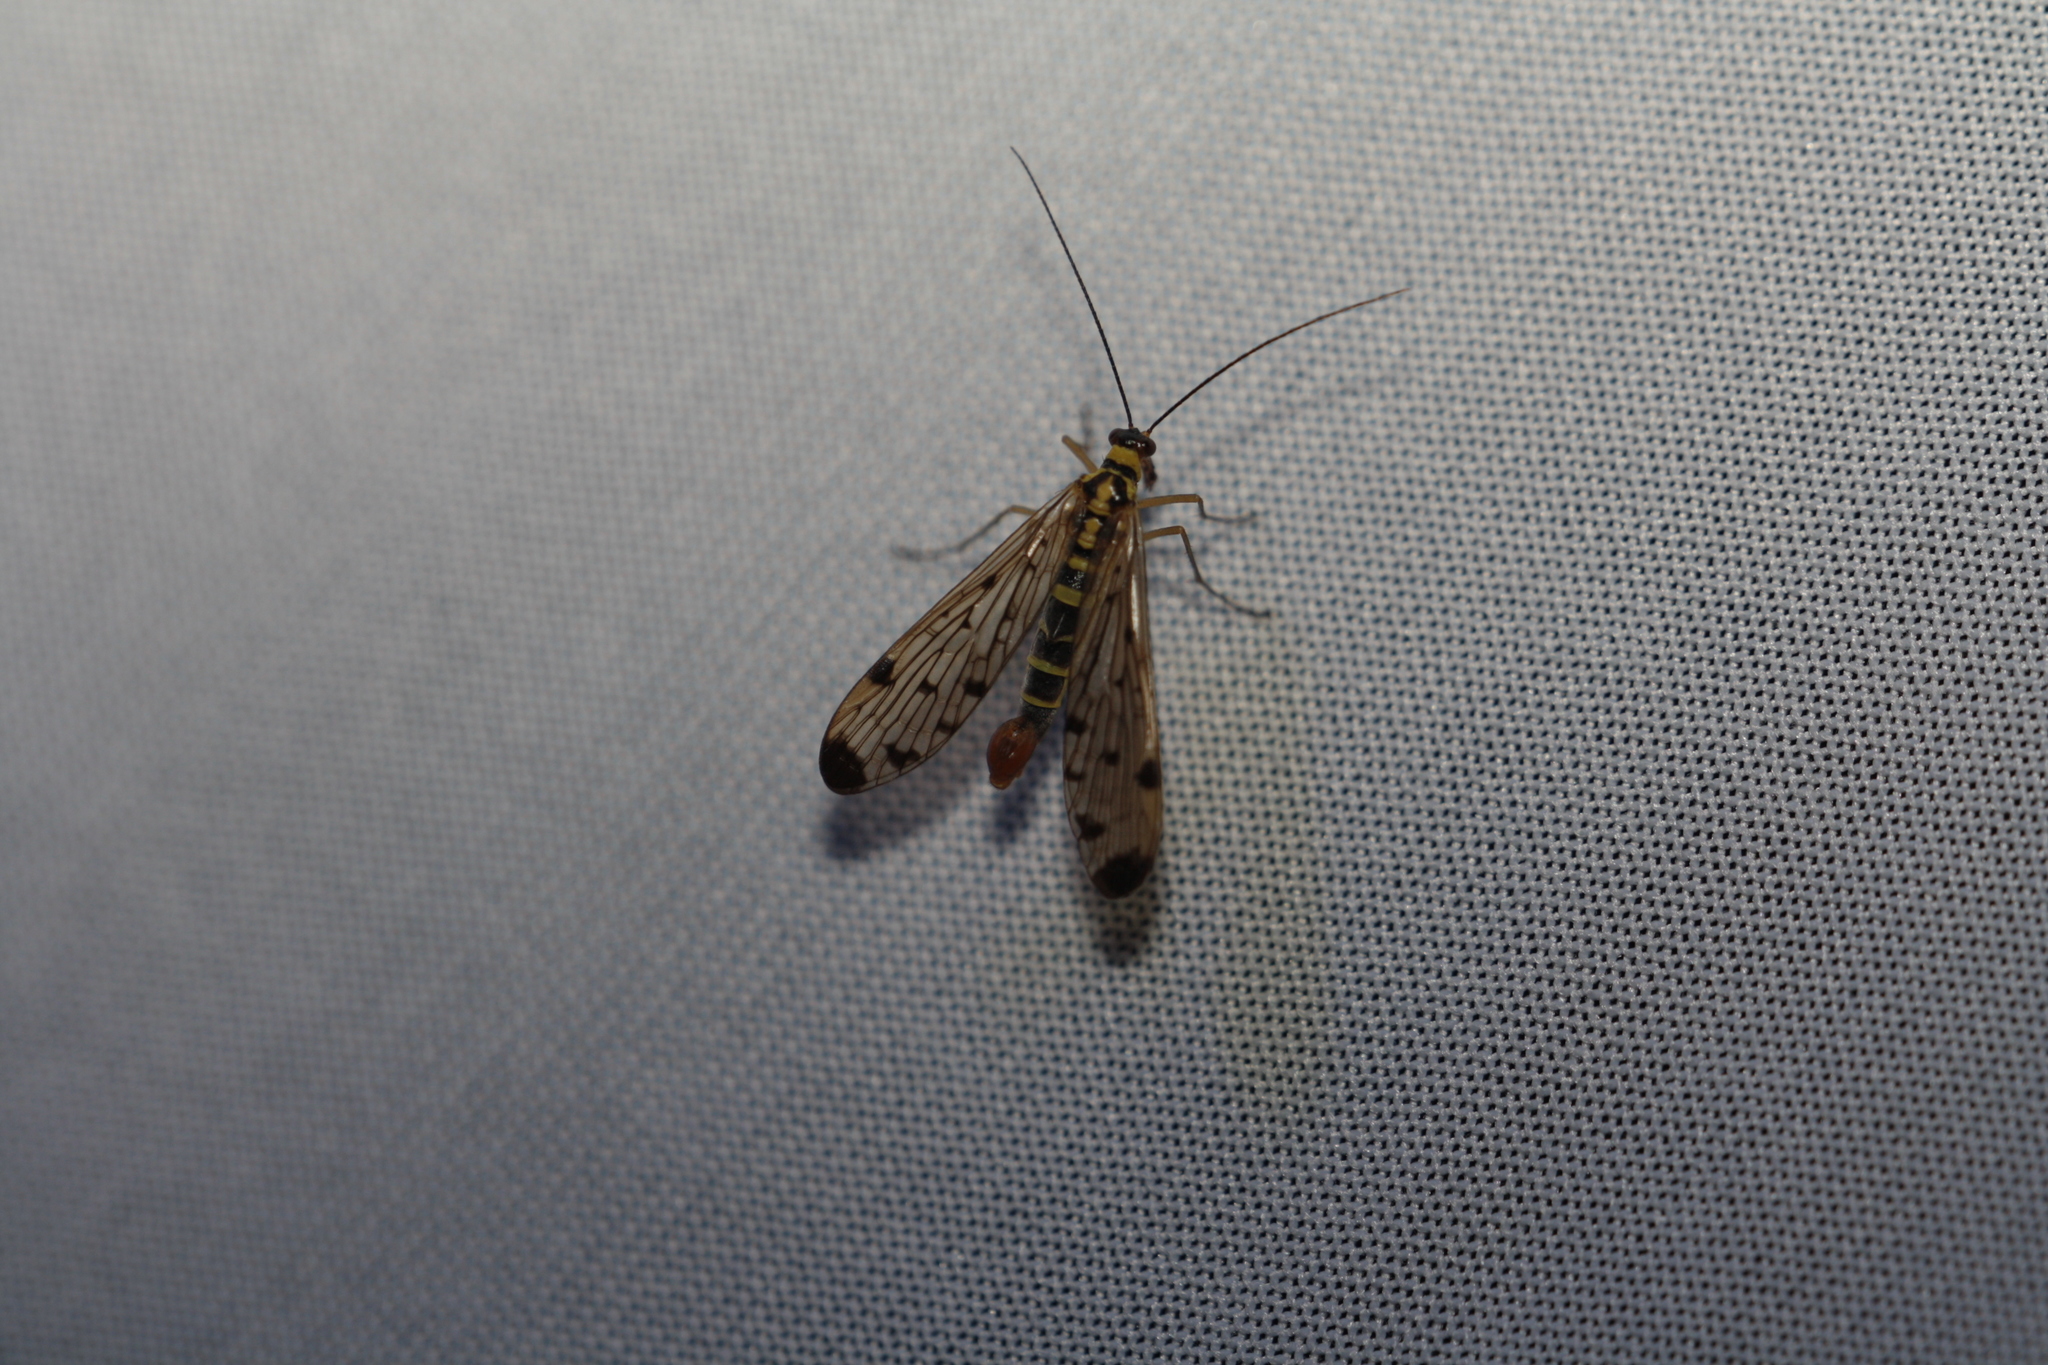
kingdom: Animalia
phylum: Arthropoda
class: Insecta
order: Mecoptera
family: Panorpidae
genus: Panorpa
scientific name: Panorpa germanica
